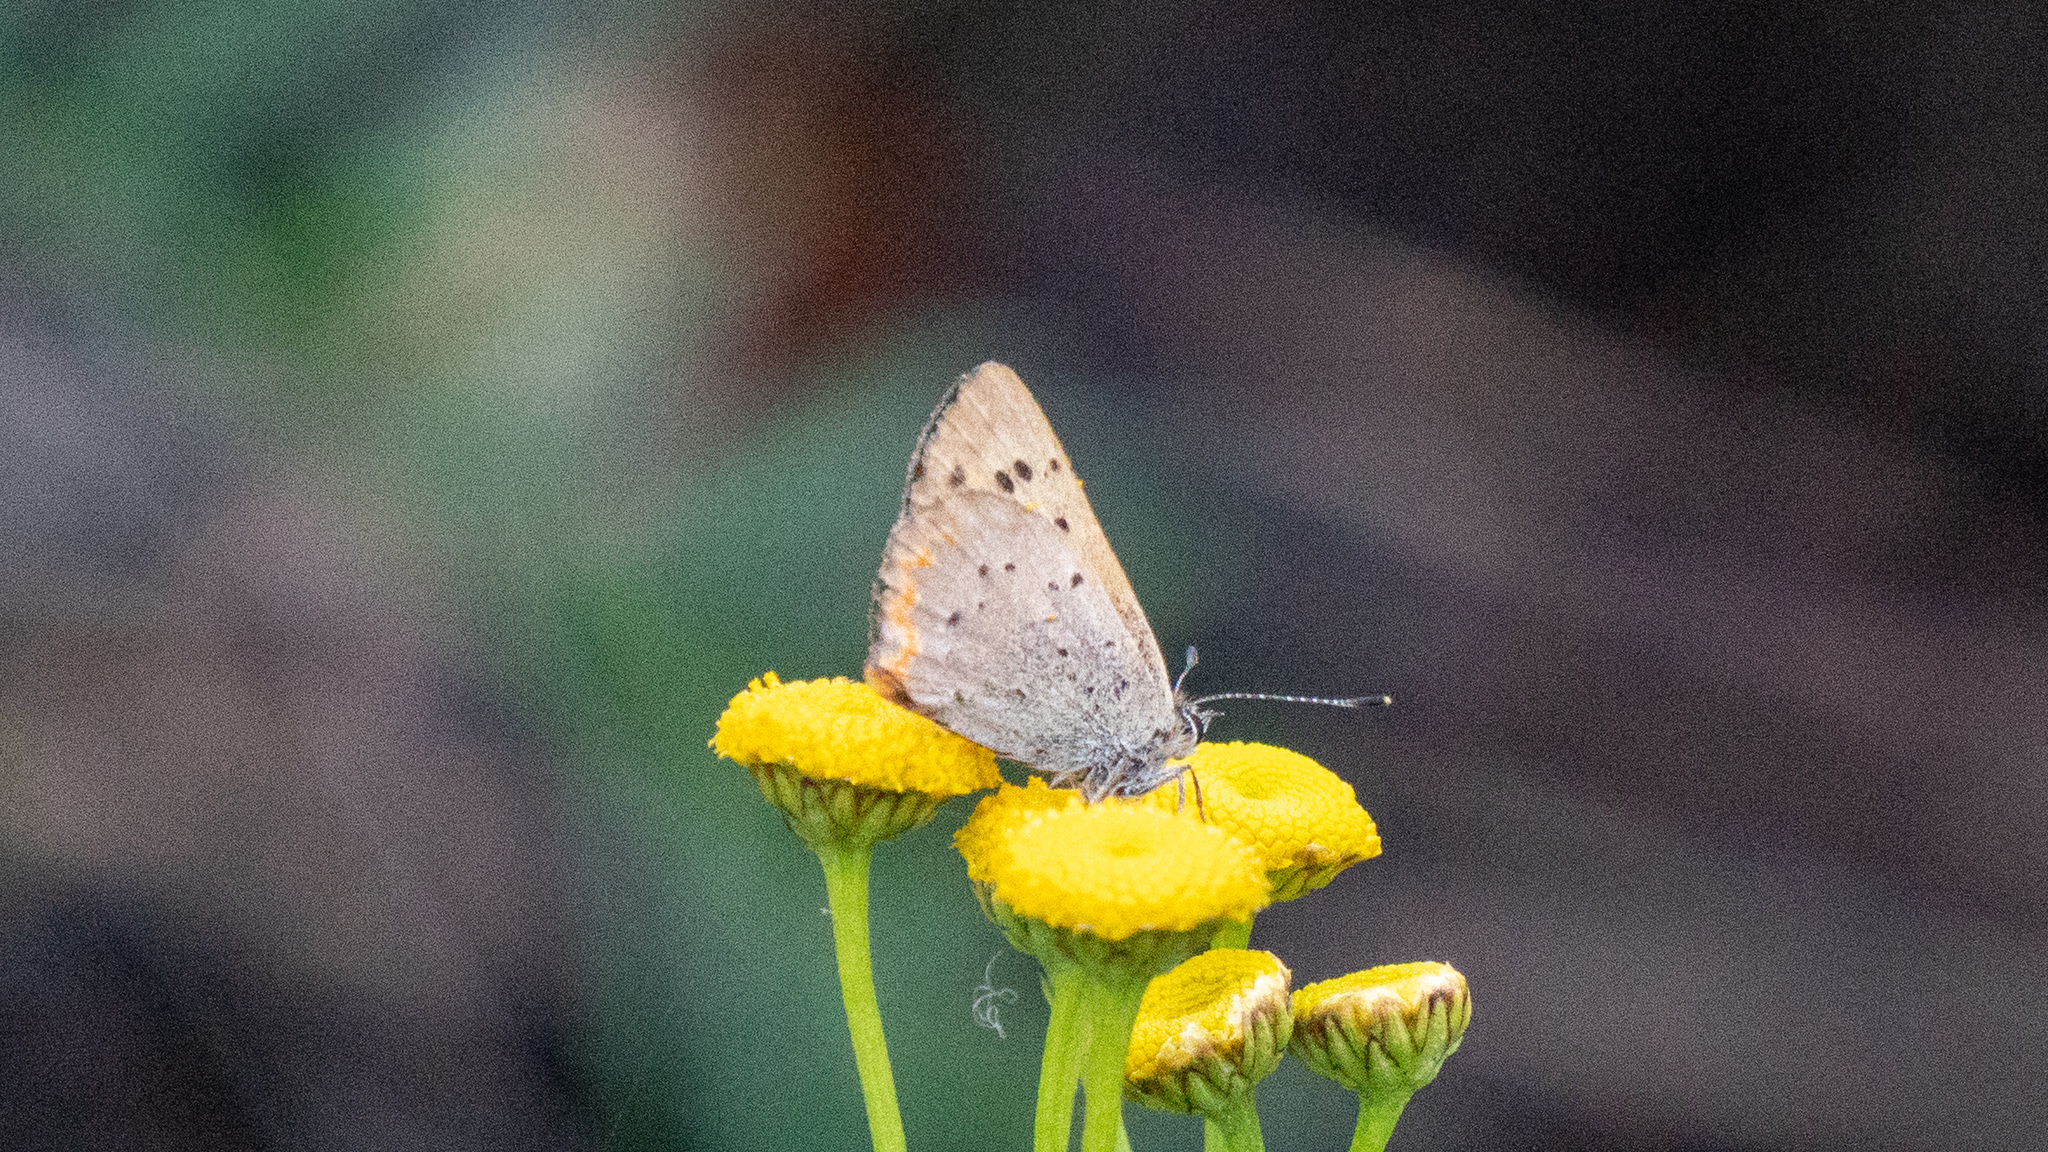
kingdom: Animalia
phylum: Arthropoda
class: Insecta
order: Lepidoptera
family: Lycaenidae
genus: Tharsalea
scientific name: Tharsalea helloides
